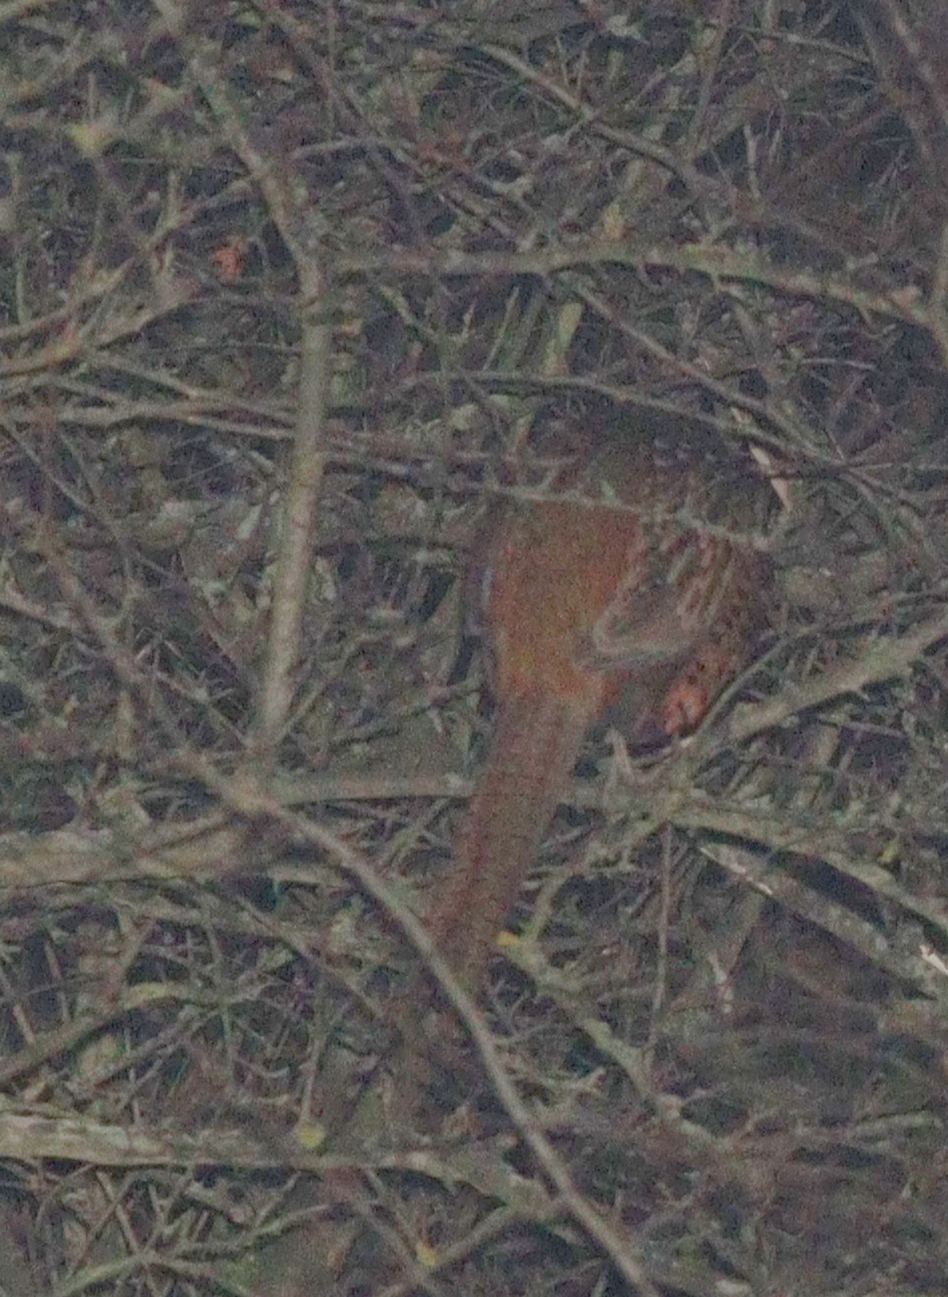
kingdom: Animalia
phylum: Chordata
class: Aves
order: Galliformes
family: Phasianidae
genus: Phasianus
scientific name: Phasianus colchicus
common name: Common pheasant
